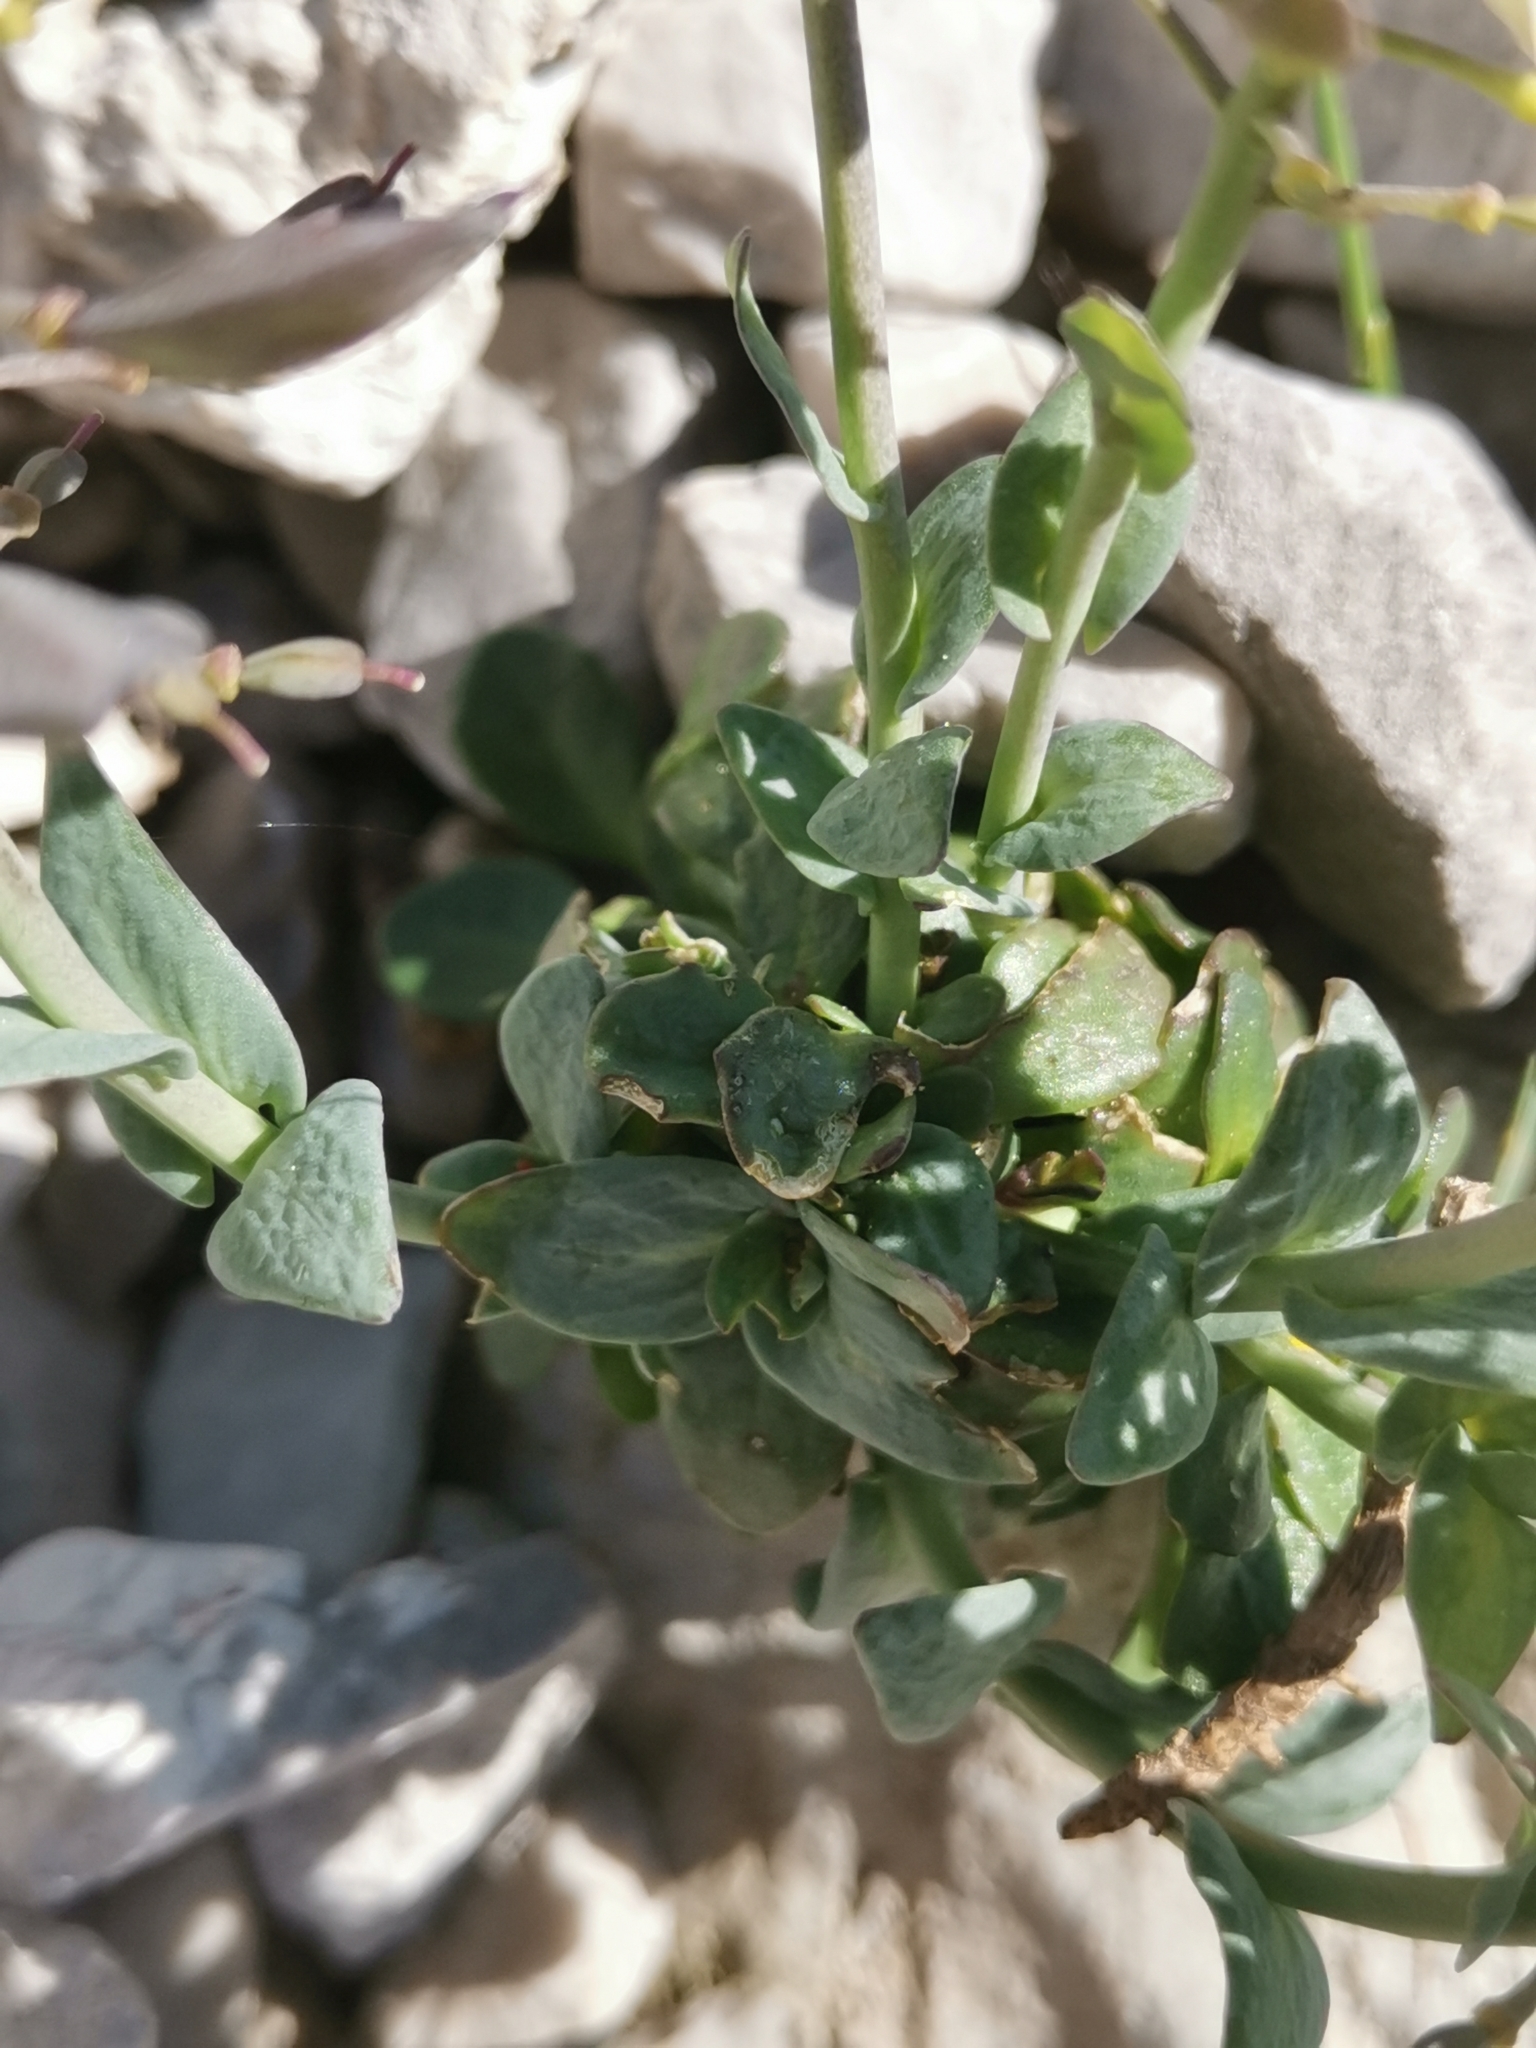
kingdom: Plantae
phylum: Tracheophyta
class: Magnoliopsida
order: Brassicales
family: Brassicaceae
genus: Noccaea
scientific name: Noccaea minima
